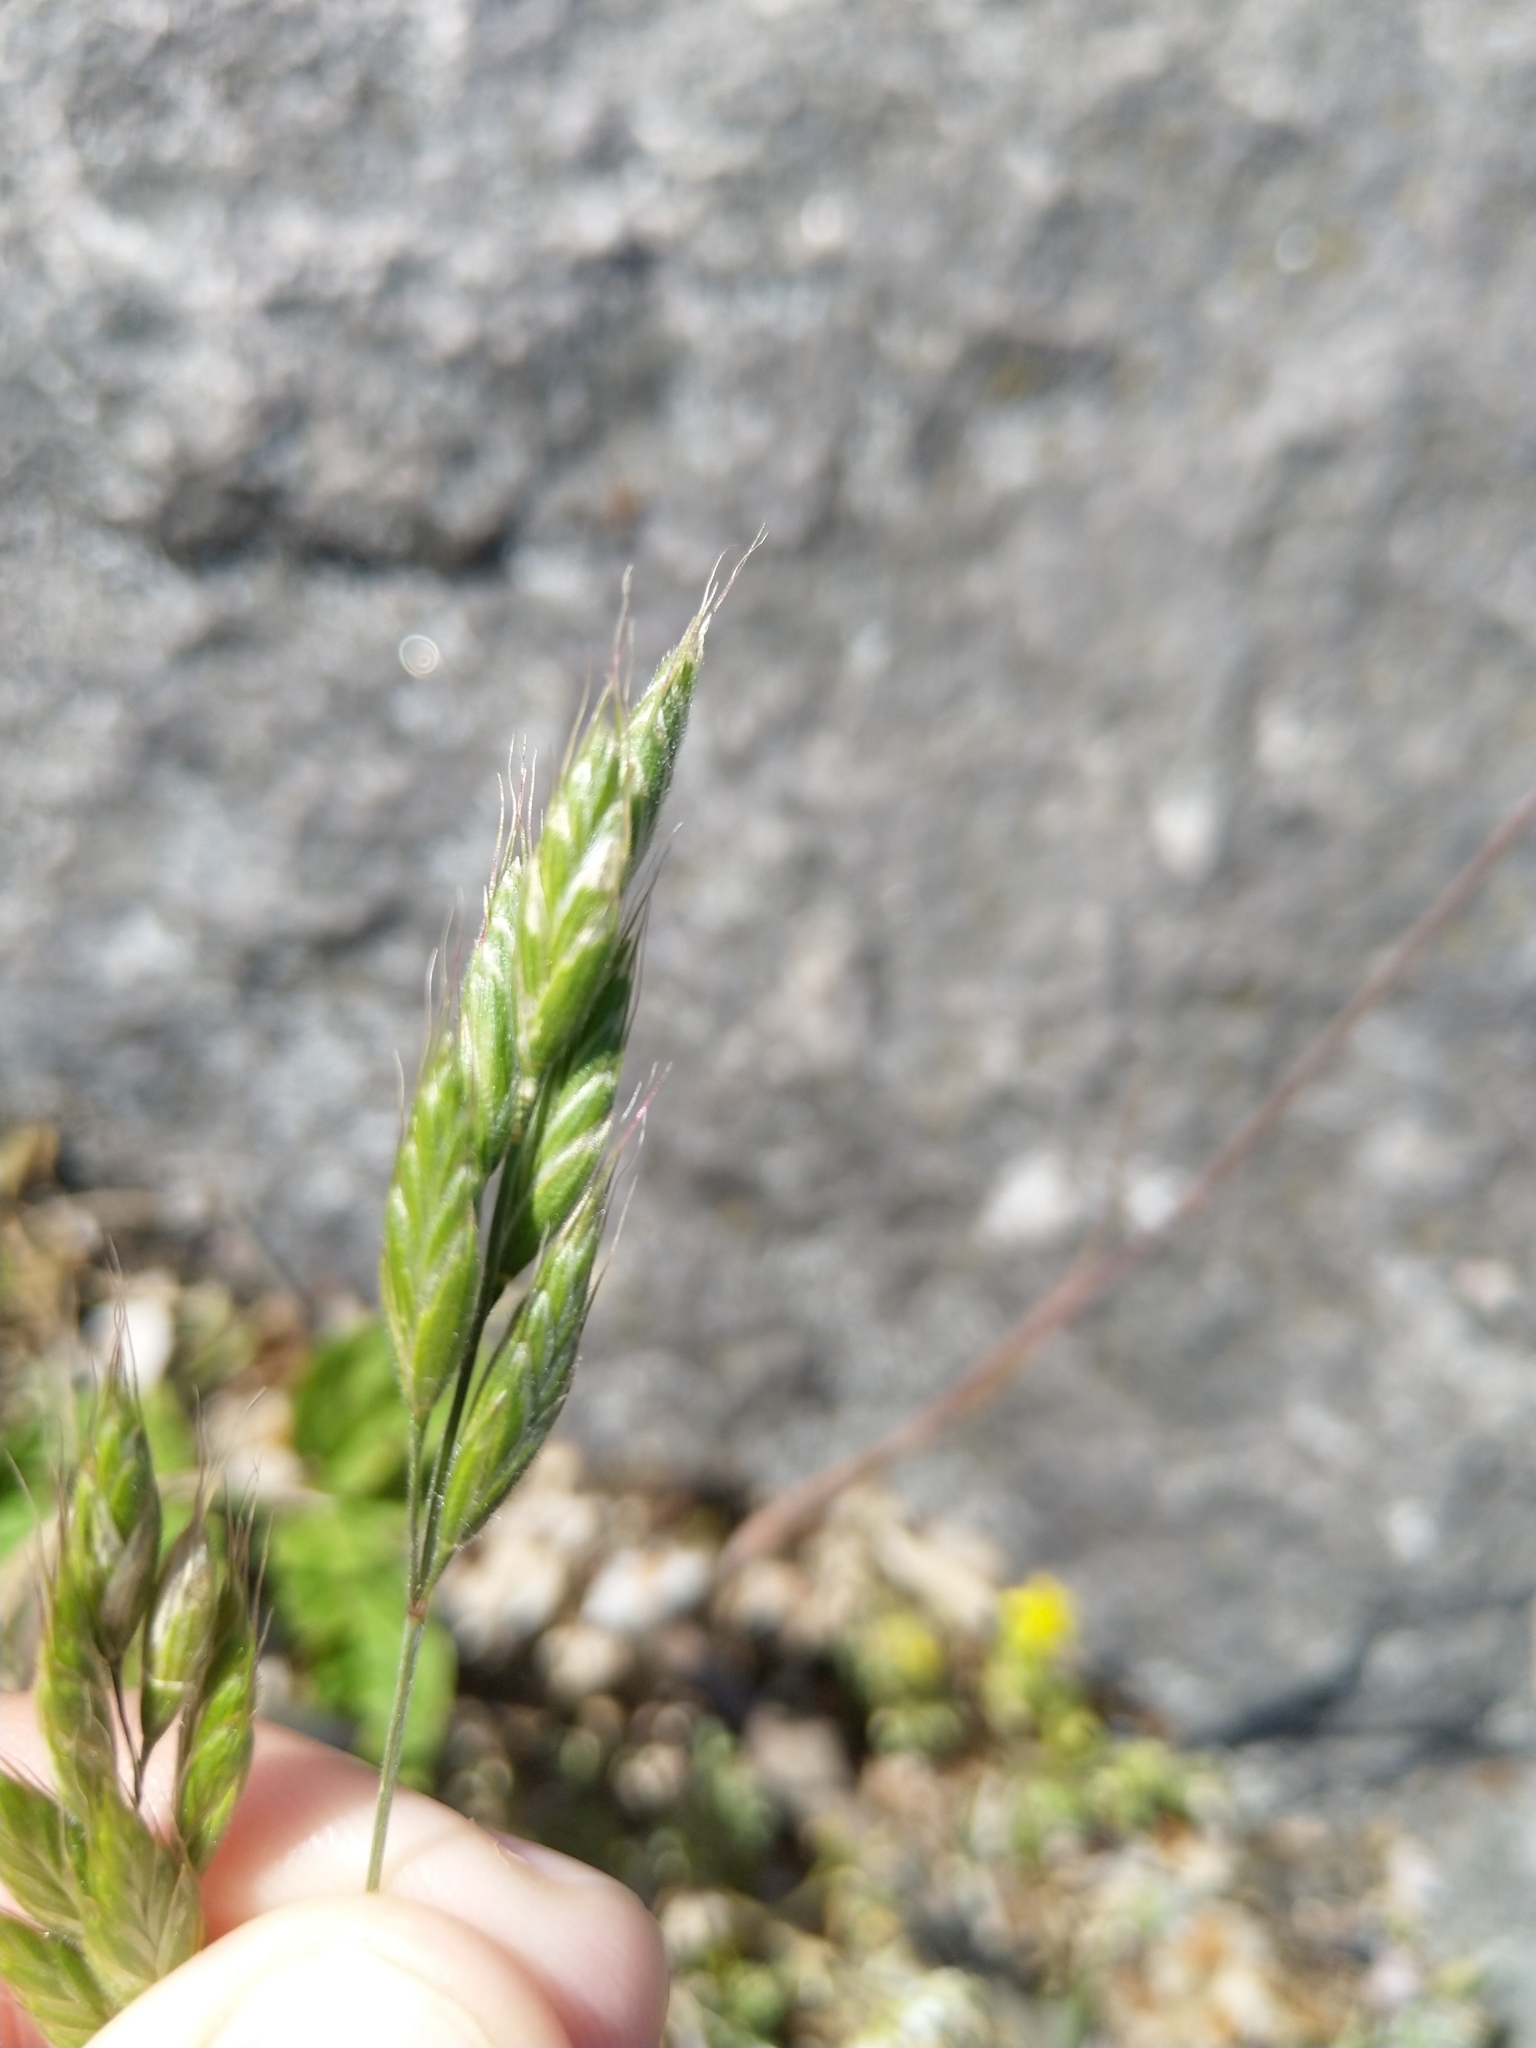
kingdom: Plantae
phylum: Tracheophyta
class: Liliopsida
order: Poales
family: Poaceae
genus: Bromus
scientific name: Bromus hordeaceus
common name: Soft brome
